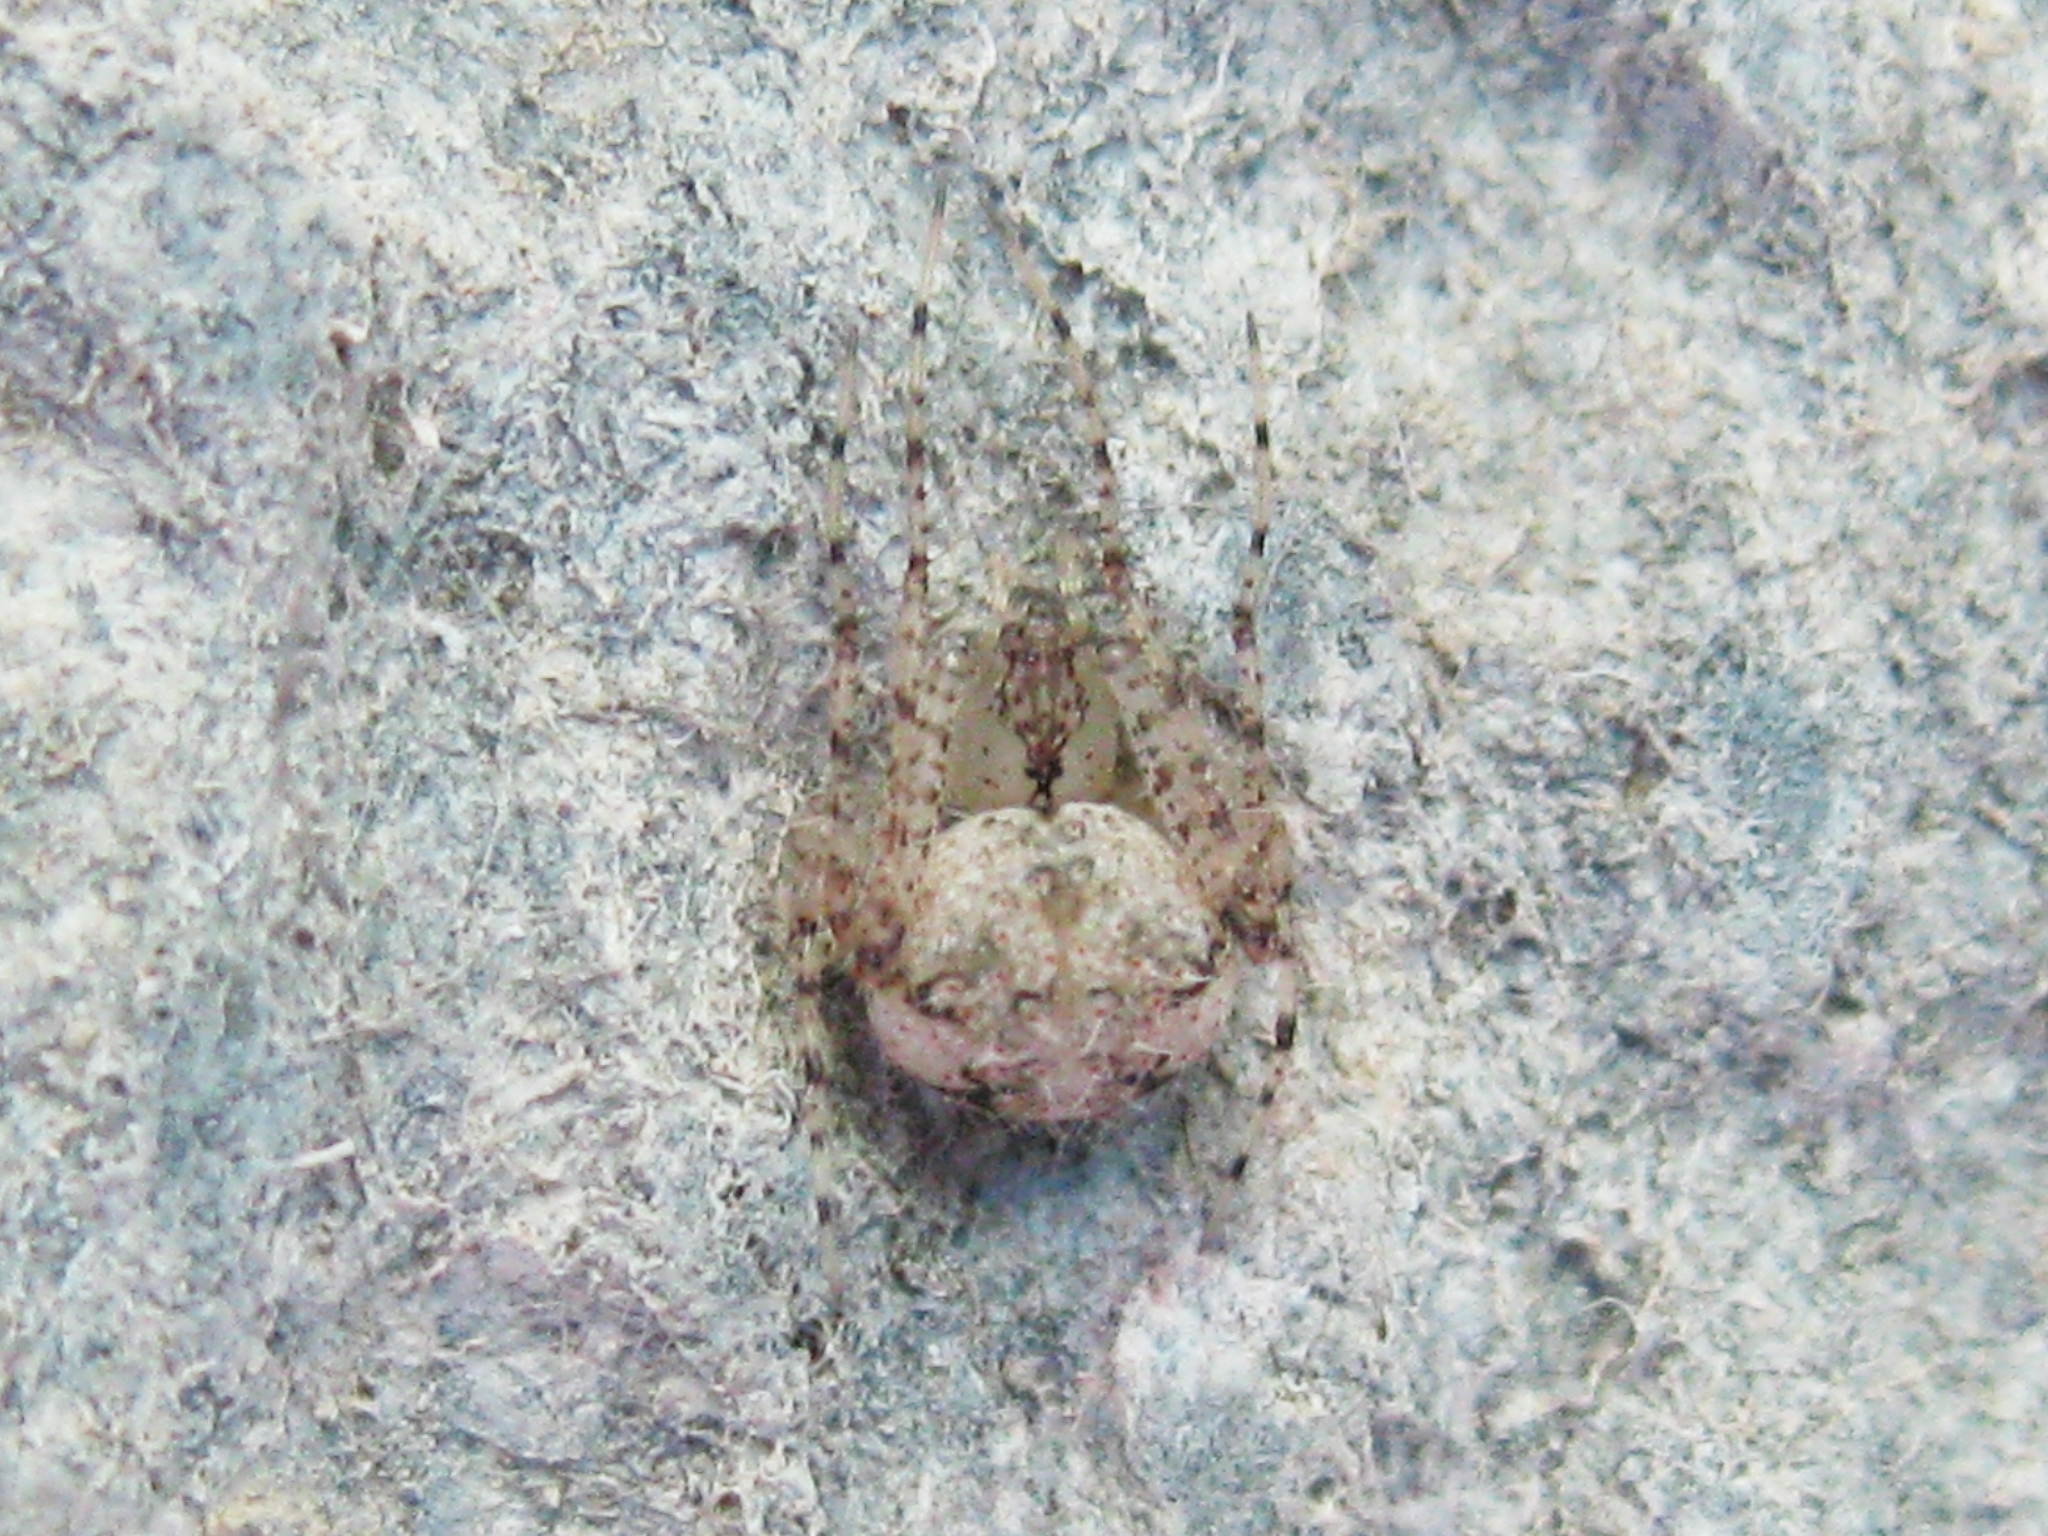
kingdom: Animalia
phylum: Arthropoda
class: Arachnida
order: Araneae
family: Mimetidae
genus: Mimetus
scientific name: Mimetus laevigatus
